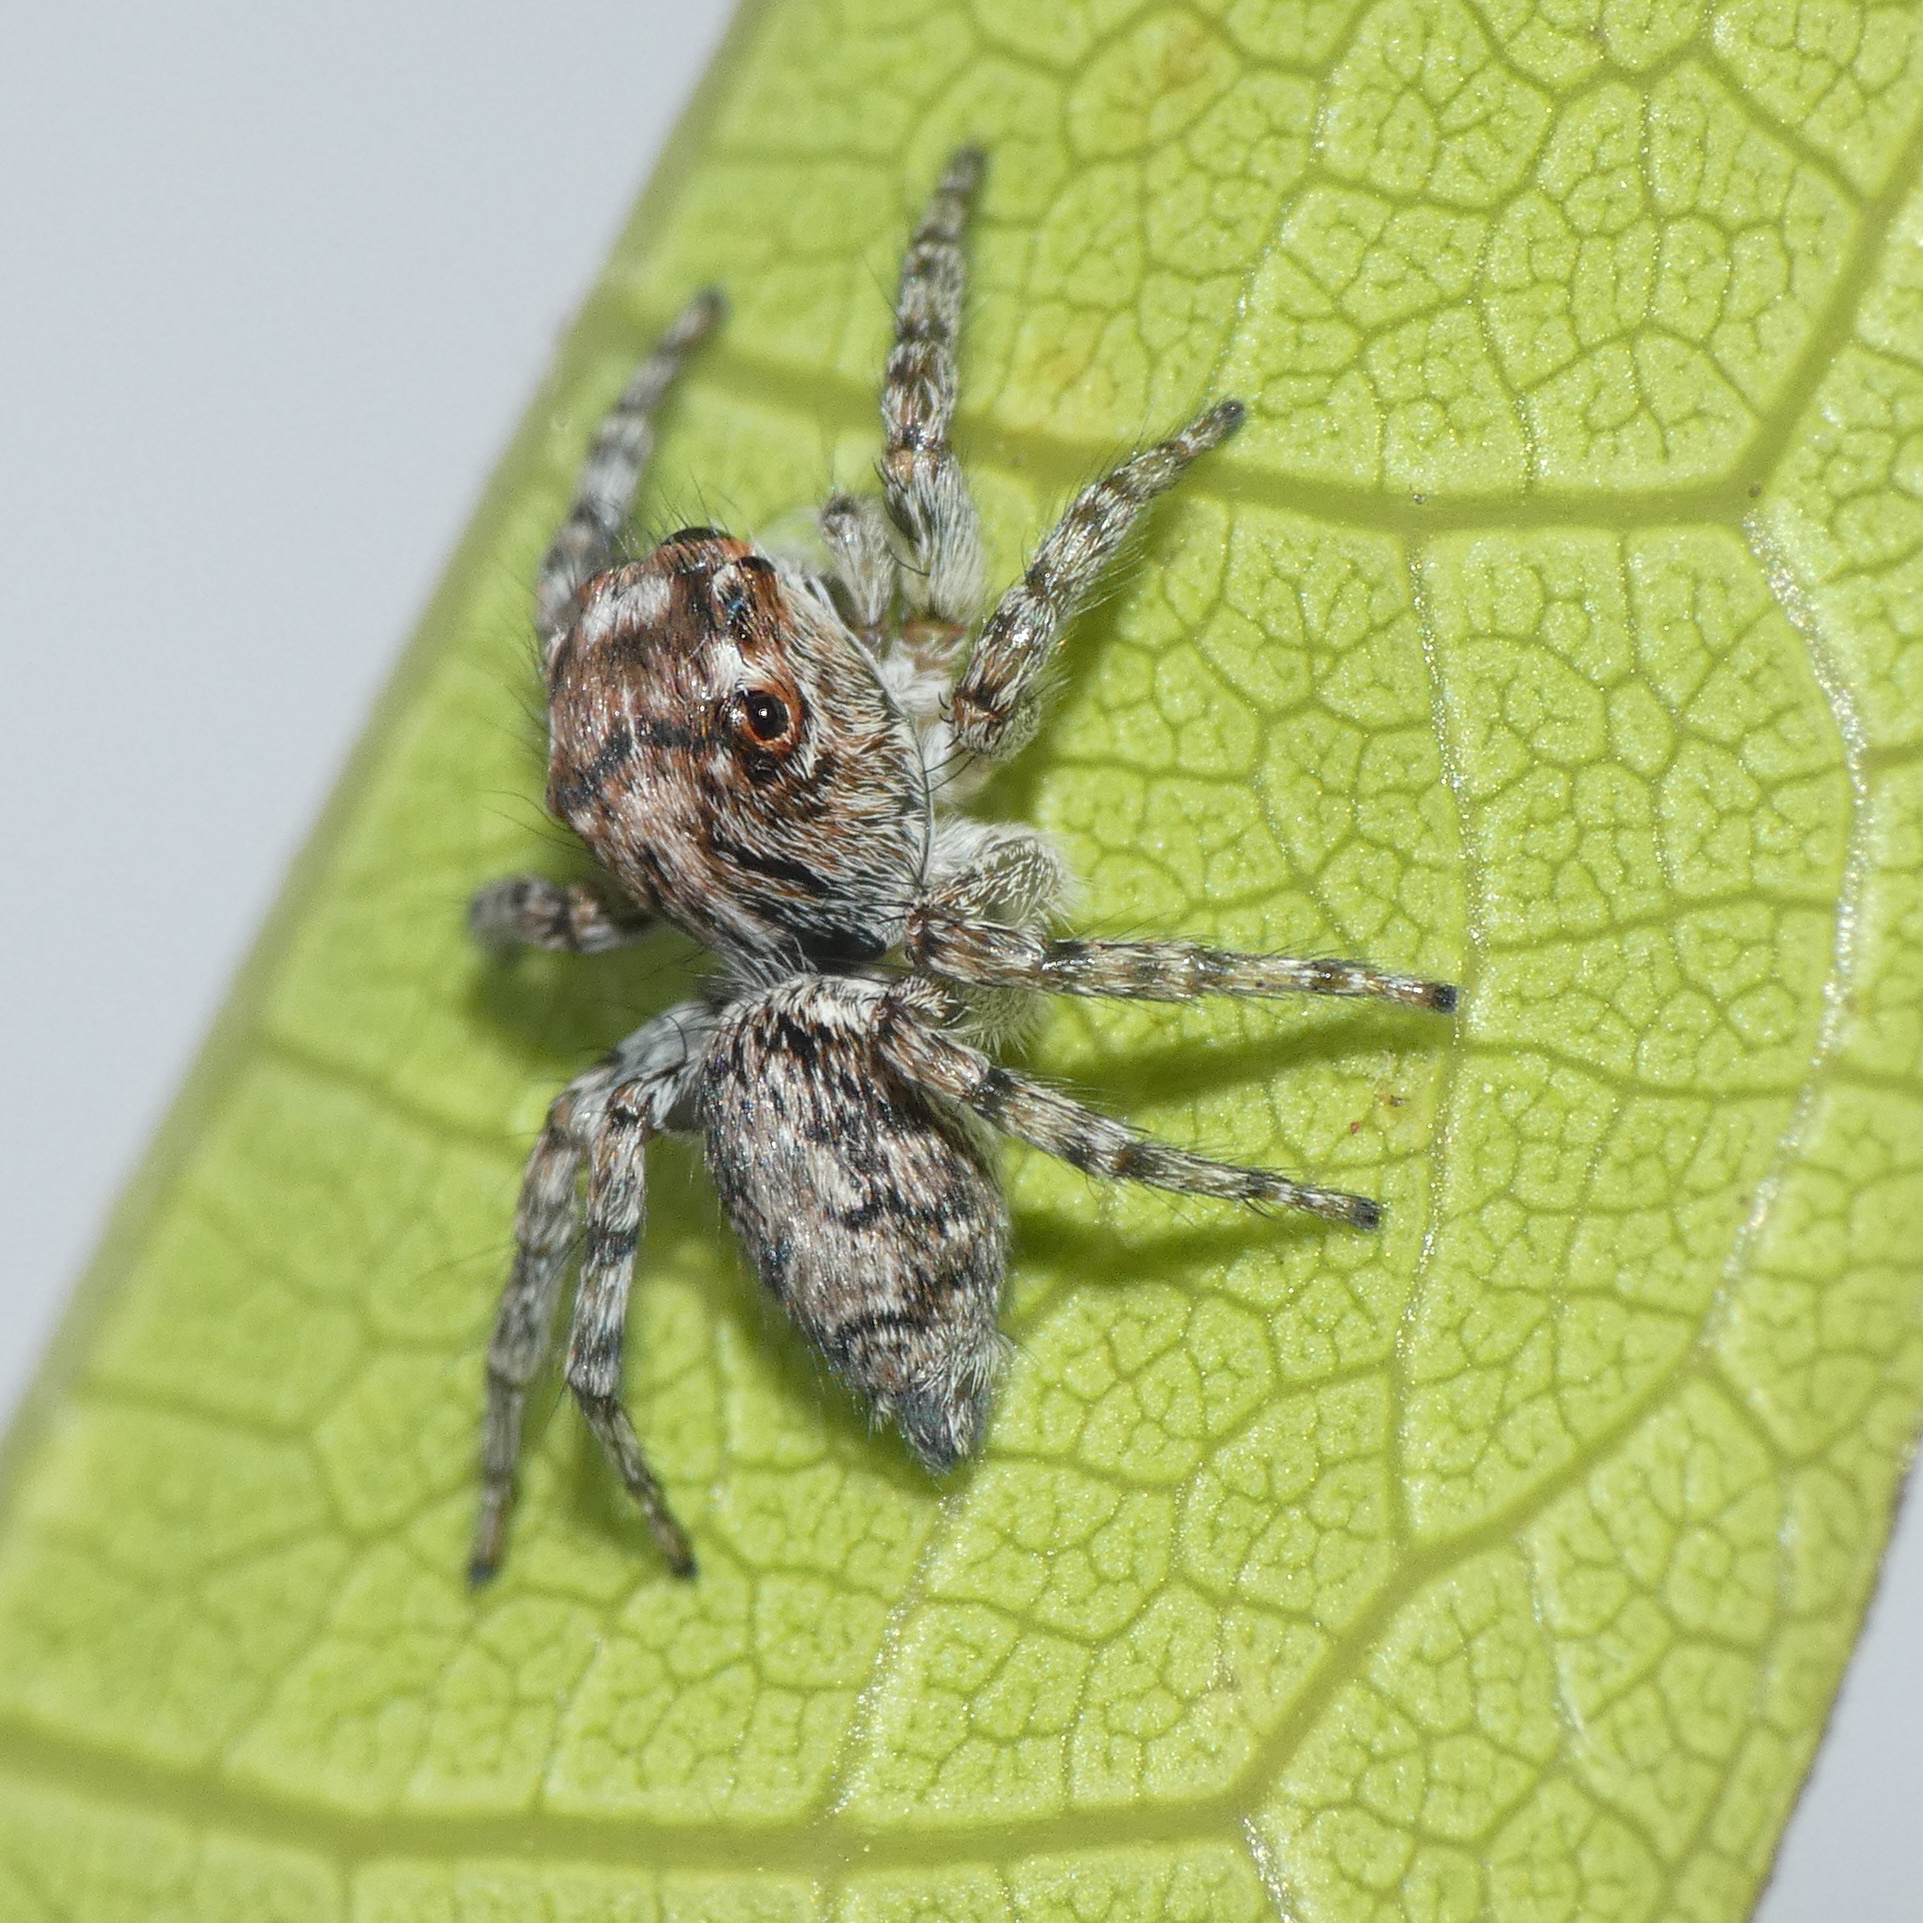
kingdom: Animalia
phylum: Arthropoda
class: Arachnida
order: Araneae
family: Salticidae
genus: Tusitala
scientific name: Tusitala hirsuta
